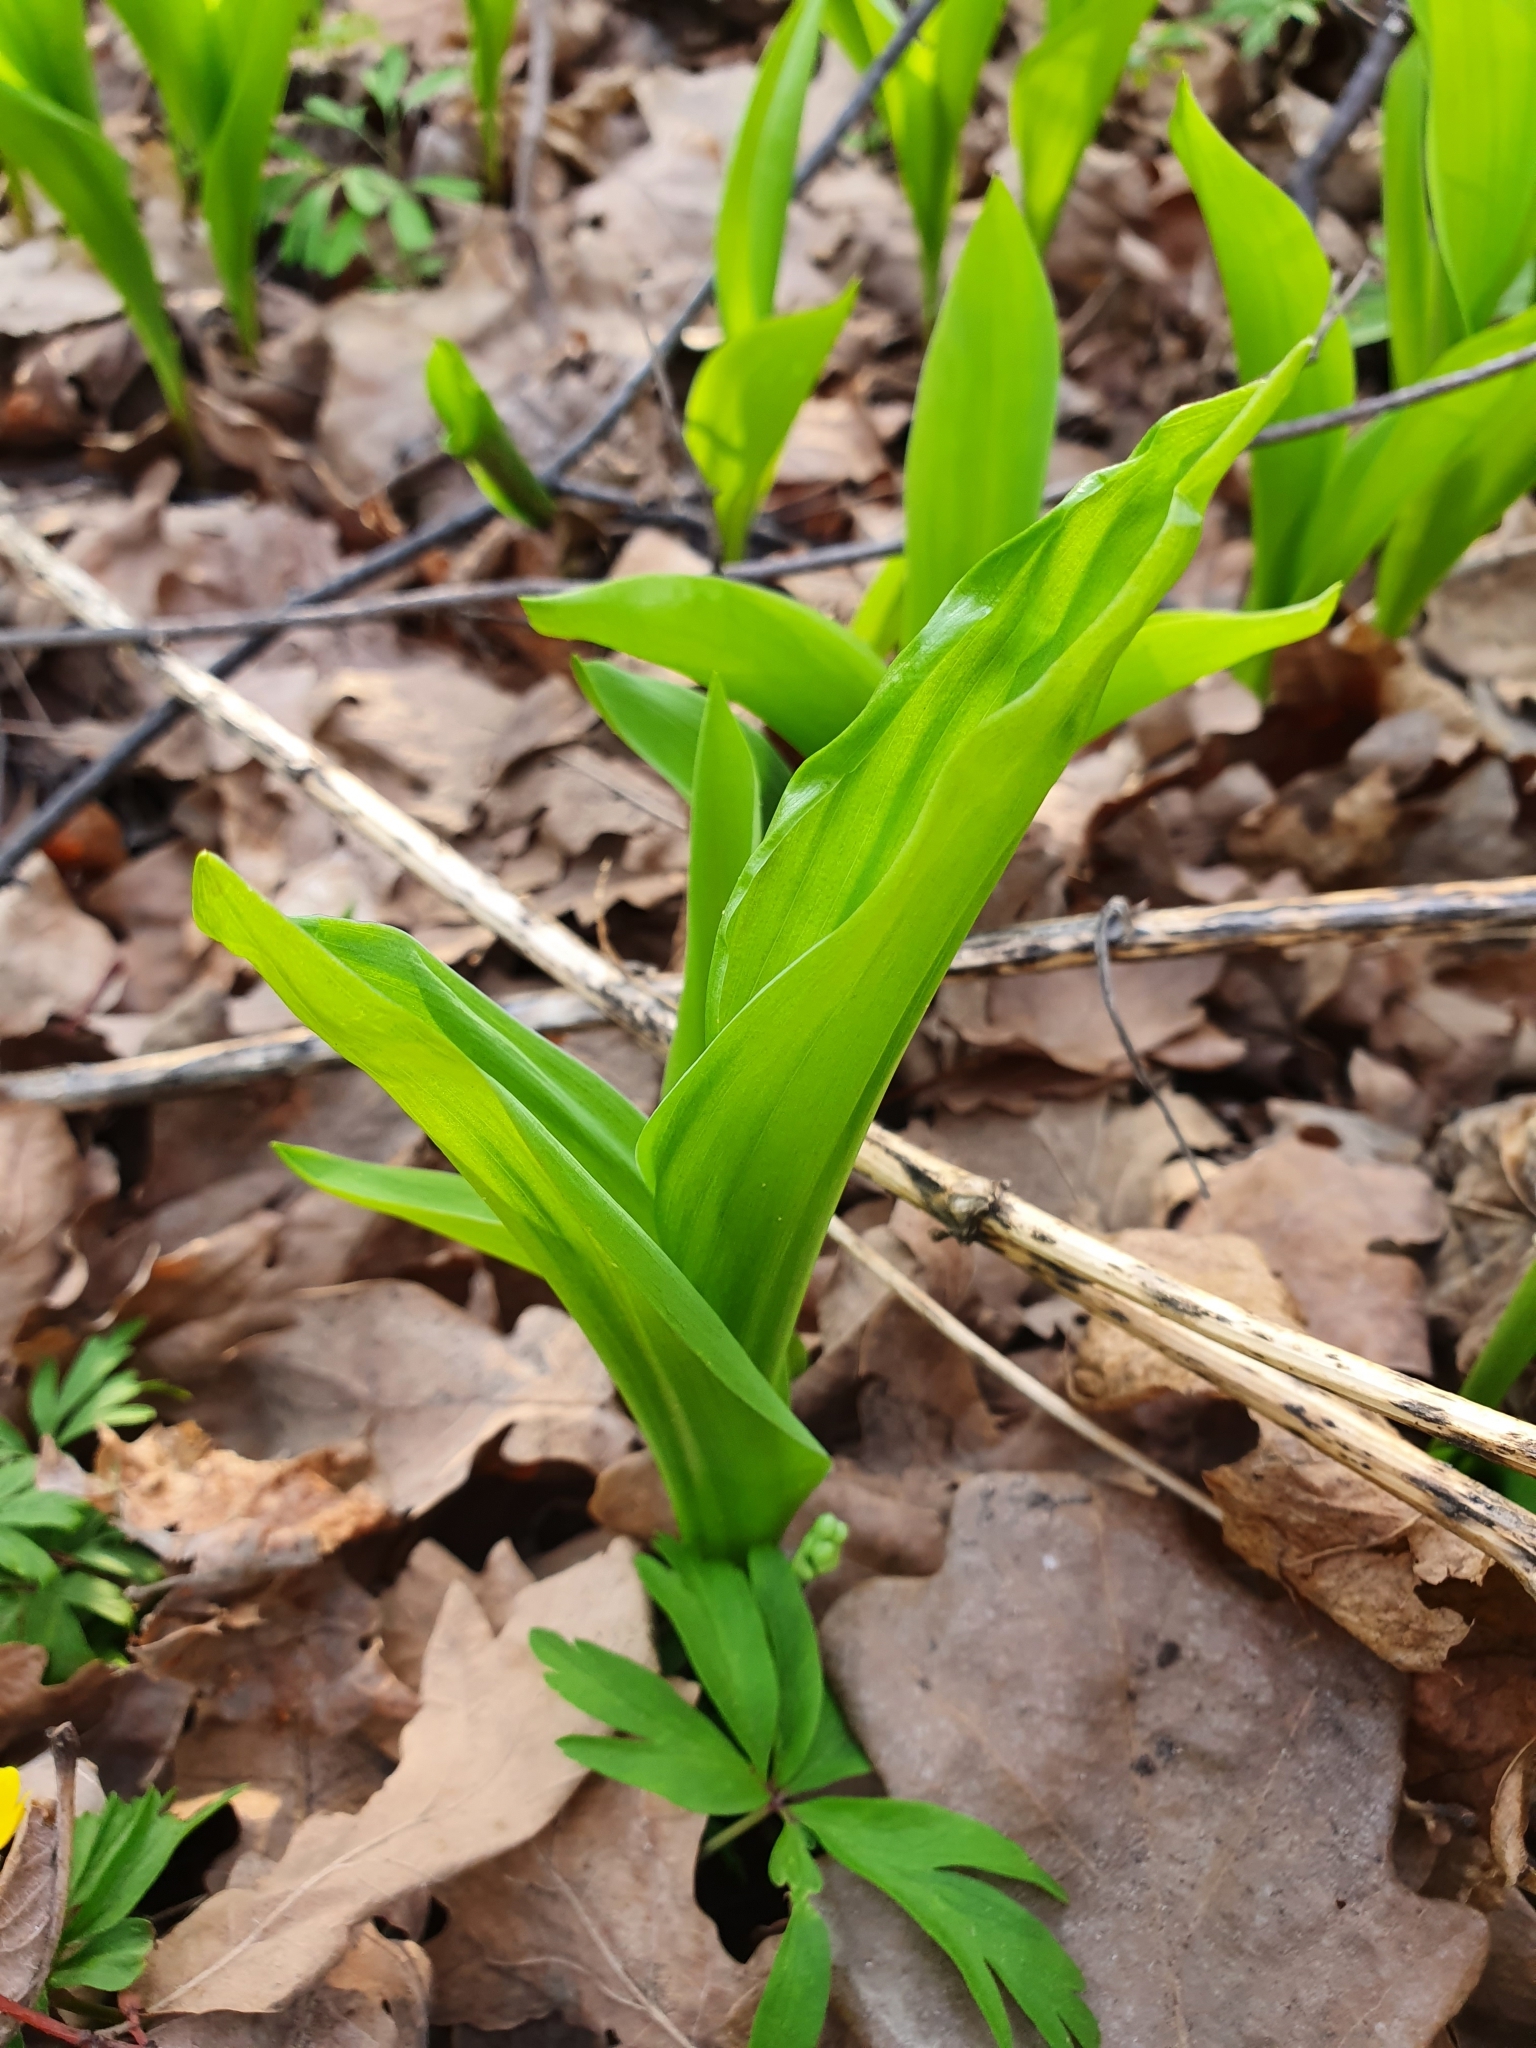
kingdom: Plantae
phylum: Tracheophyta
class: Liliopsida
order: Asparagales
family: Asparagaceae
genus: Convallaria
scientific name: Convallaria majalis
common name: Lily-of-the-valley
